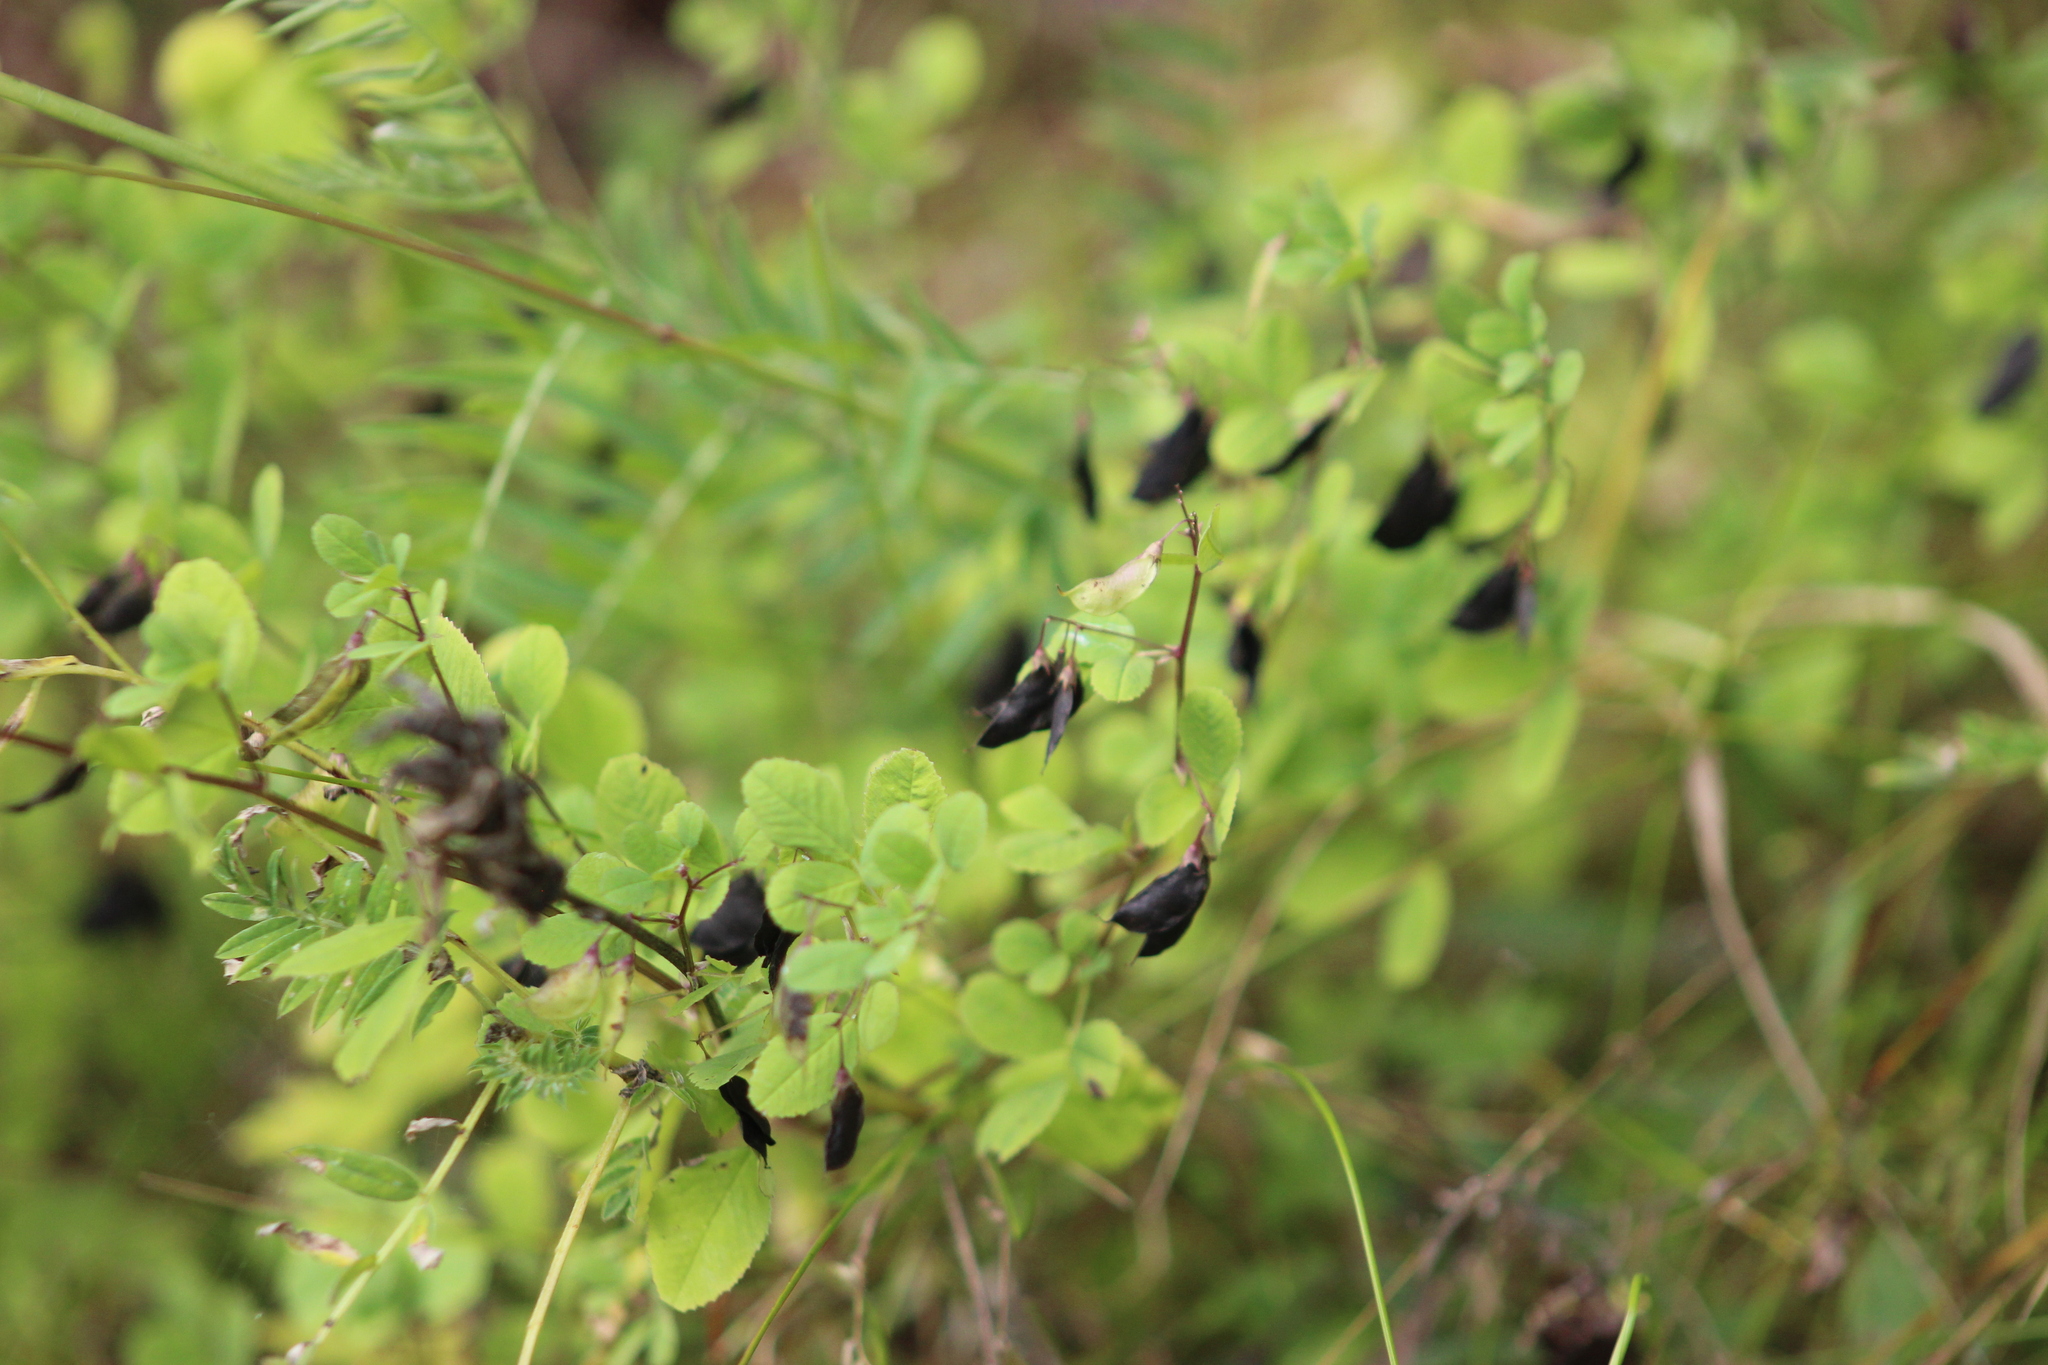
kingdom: Plantae
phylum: Tracheophyta
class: Magnoliopsida
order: Fabales
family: Fabaceae
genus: Medicago
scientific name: Medicago platycarpos
